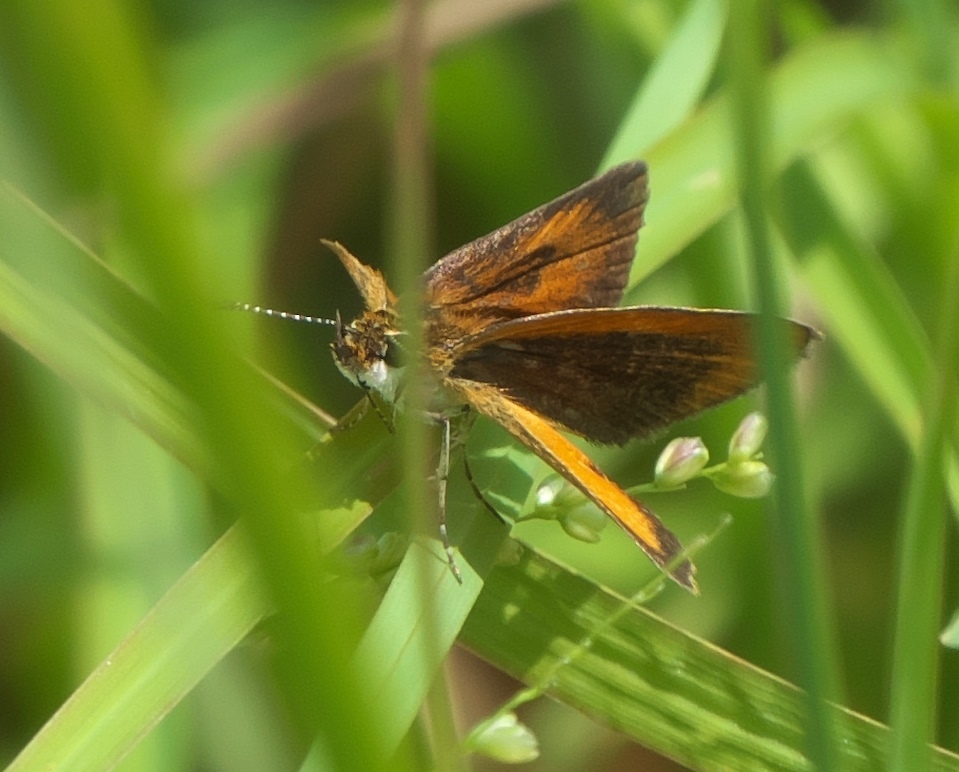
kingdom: Animalia
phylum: Arthropoda
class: Insecta
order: Lepidoptera
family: Hesperiidae
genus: Ancyloxypha
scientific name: Ancyloxypha numitor
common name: Least skipper
